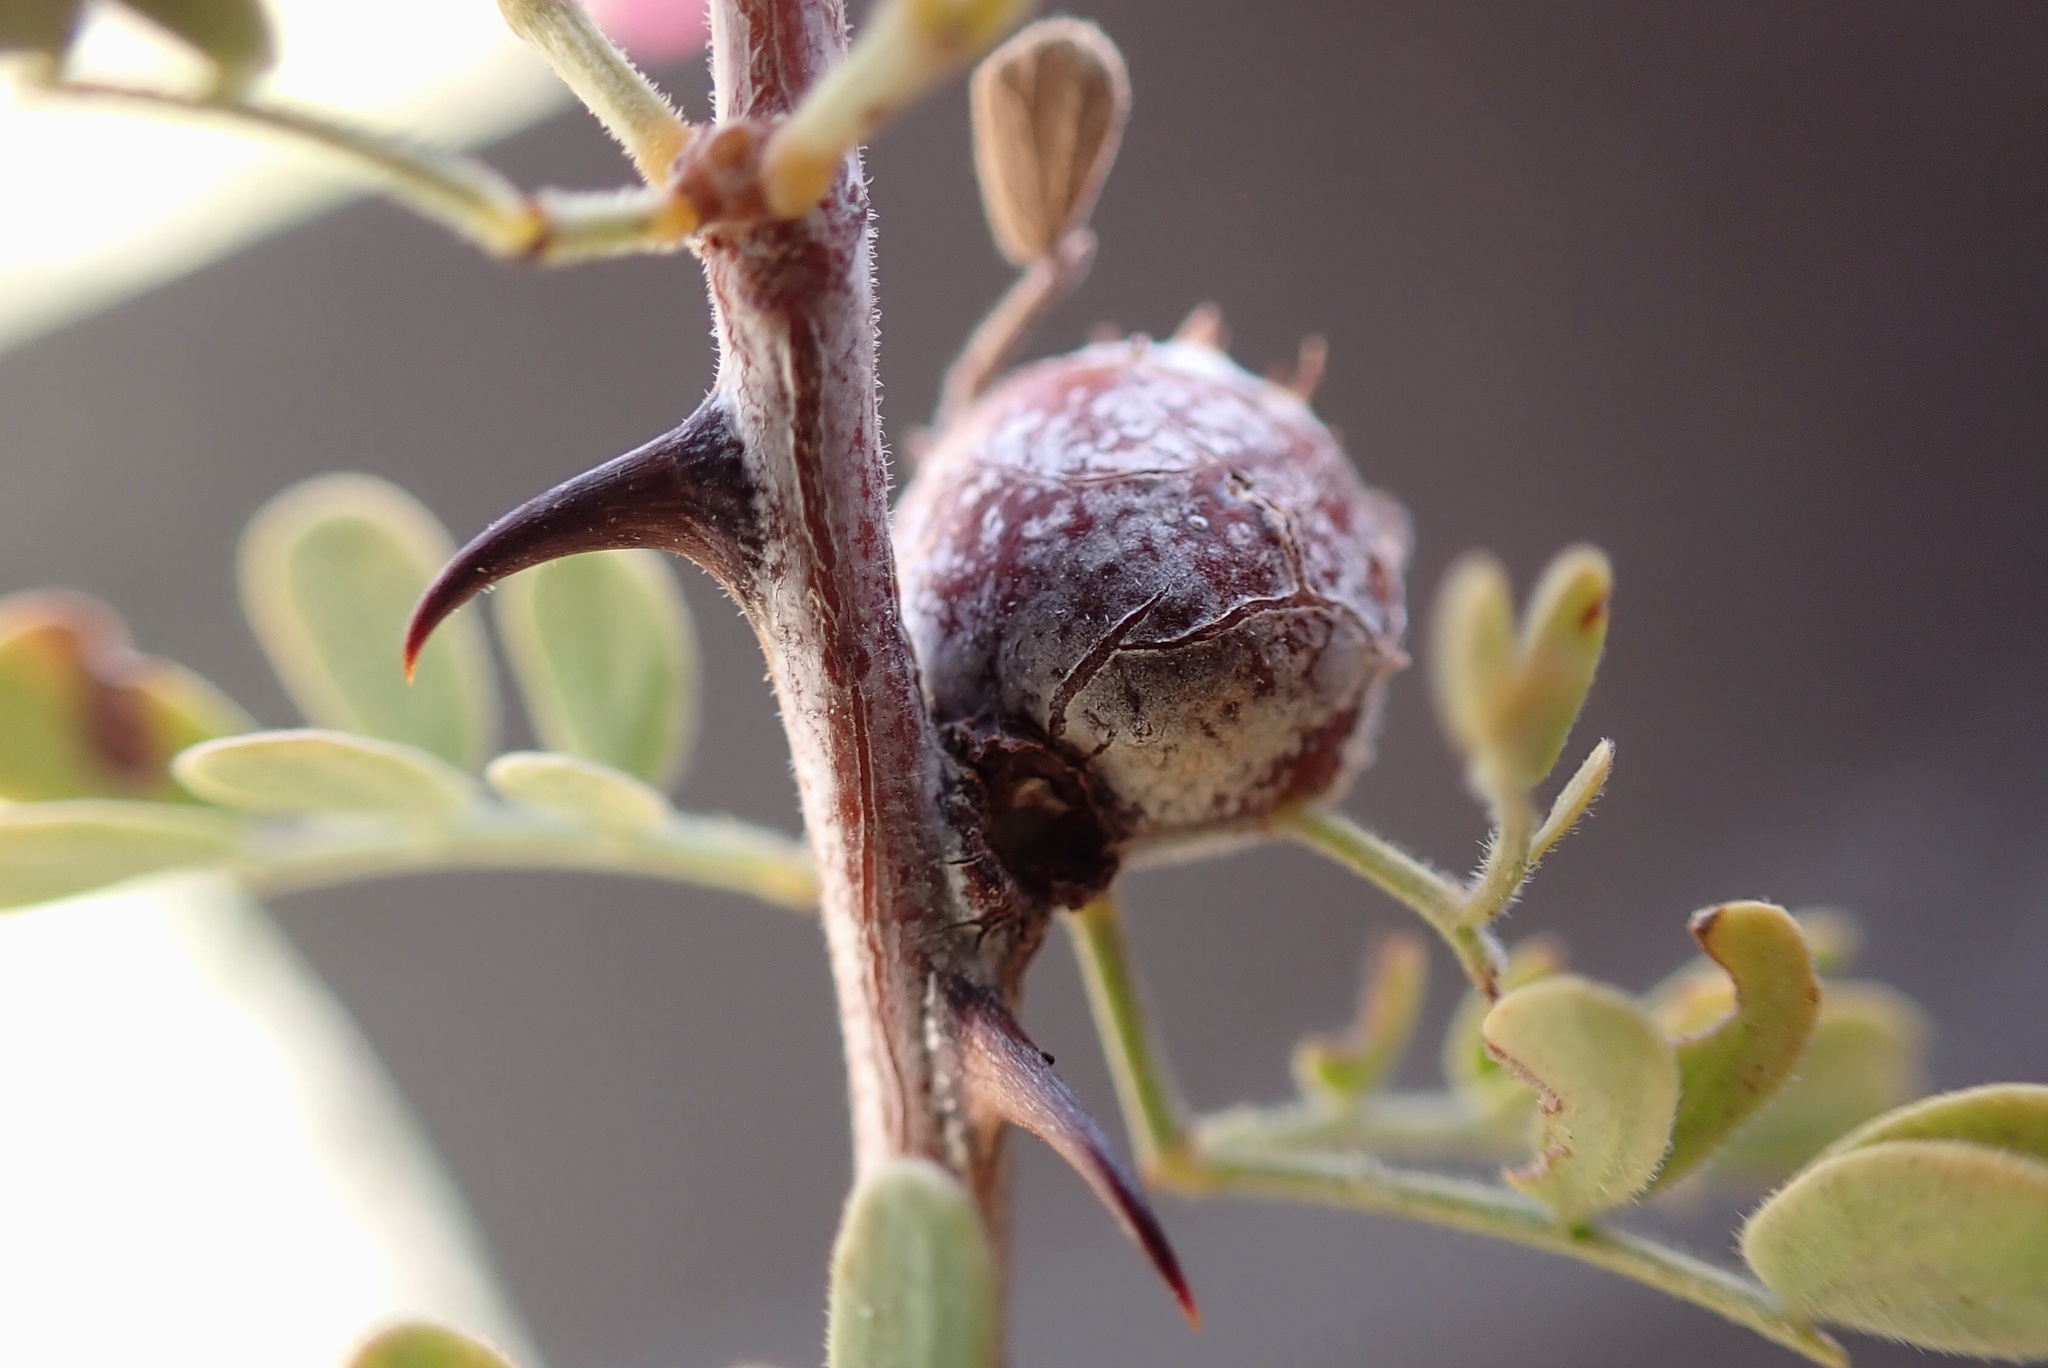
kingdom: Animalia
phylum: Arthropoda
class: Insecta
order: Hymenoptera
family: Tanaostigmatidae
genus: Tanaostigmodes
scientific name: Tanaostigmodes howardii
